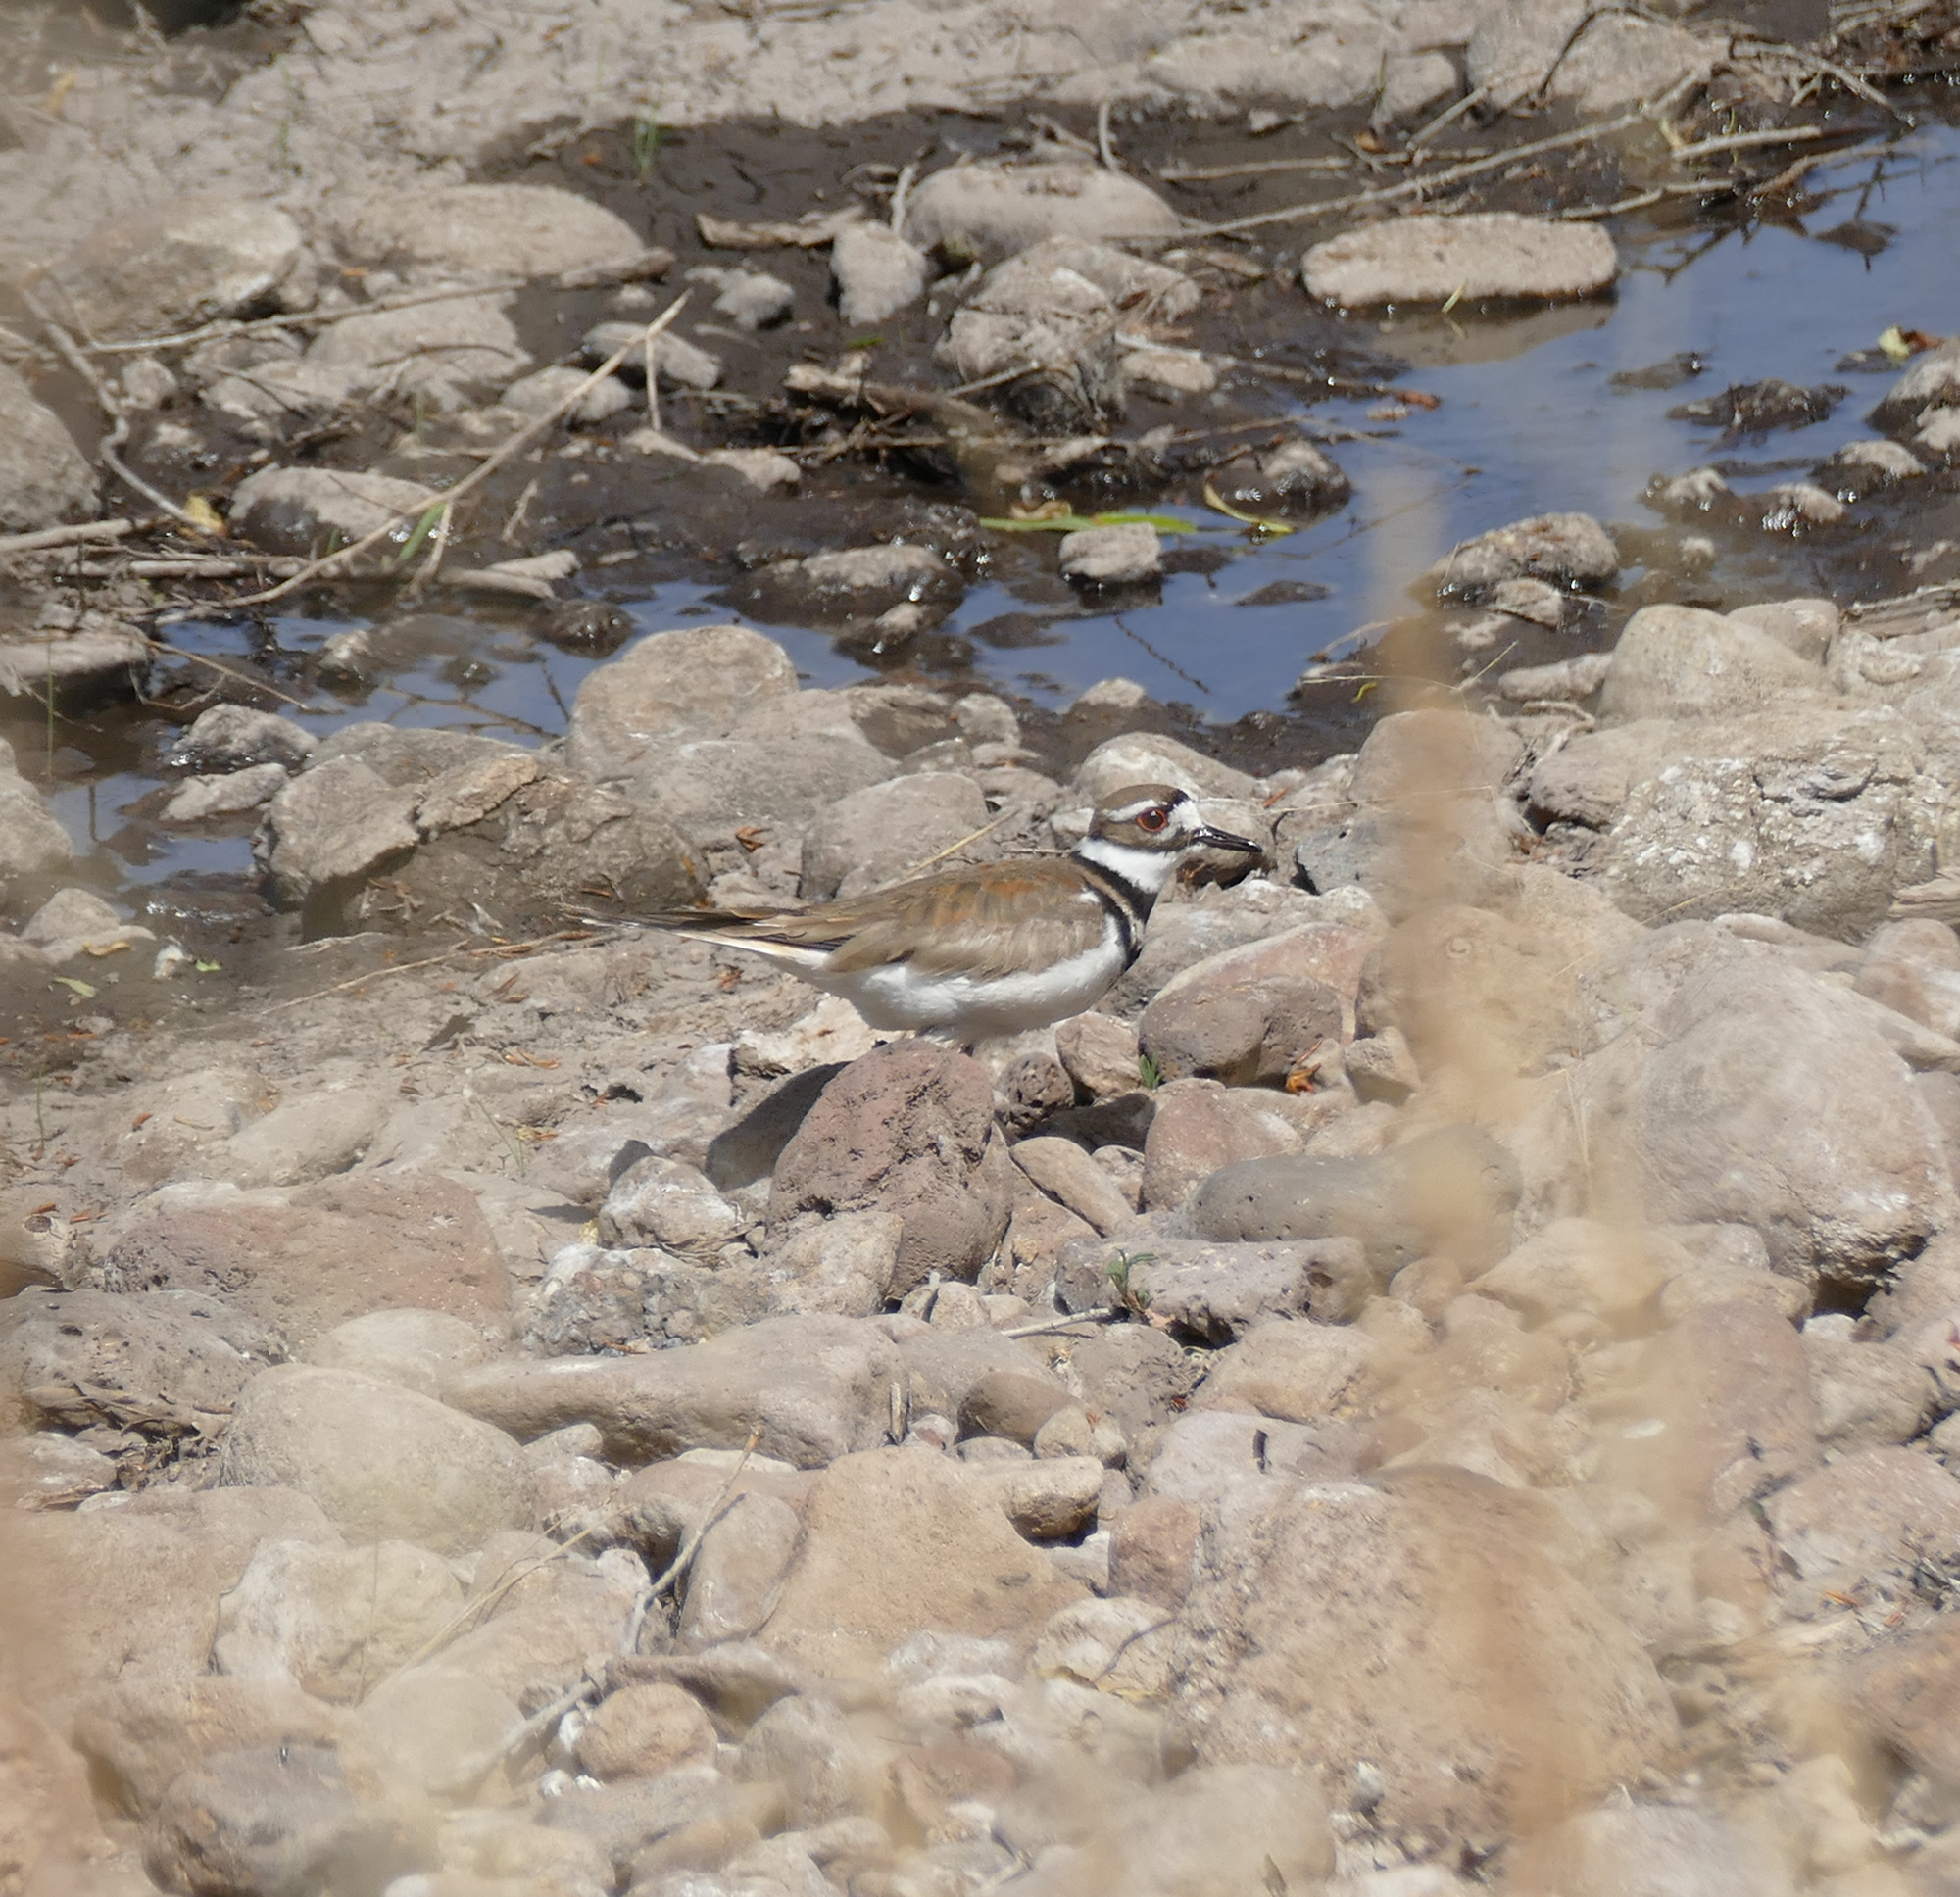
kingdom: Animalia
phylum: Chordata
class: Aves
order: Charadriiformes
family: Charadriidae
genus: Charadrius
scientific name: Charadrius vociferus
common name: Killdeer
